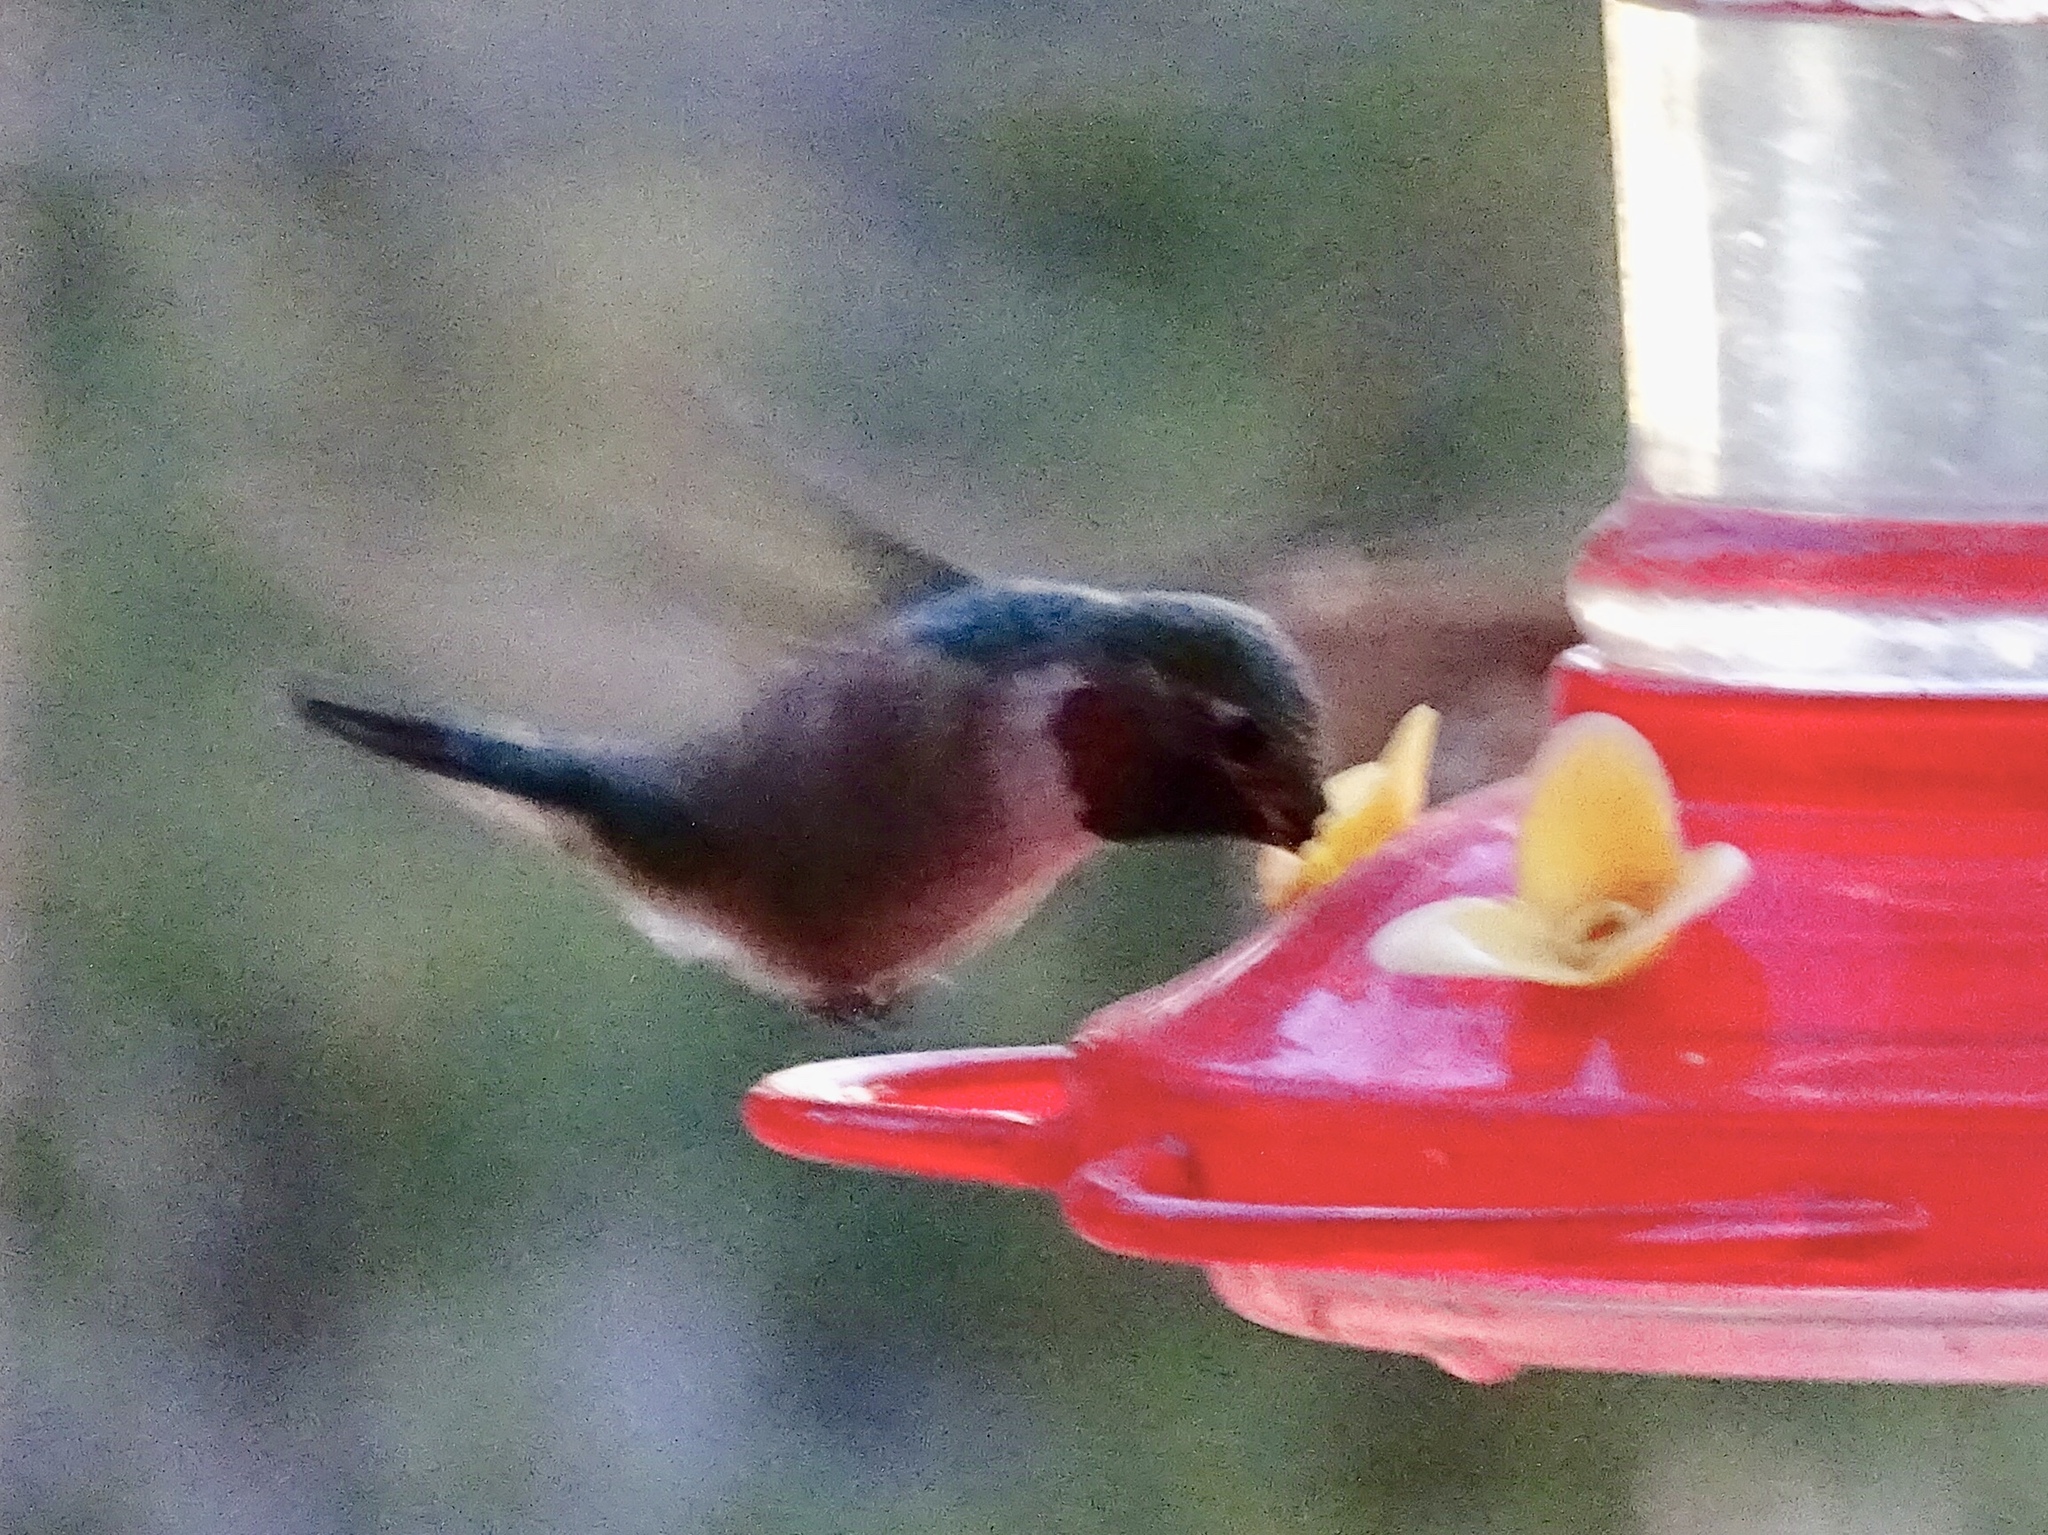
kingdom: Animalia
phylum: Chordata
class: Aves
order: Apodiformes
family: Trochilidae
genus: Selasphorus
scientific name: Selasphorus platycercus
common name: Broad-tailed hummingbird
